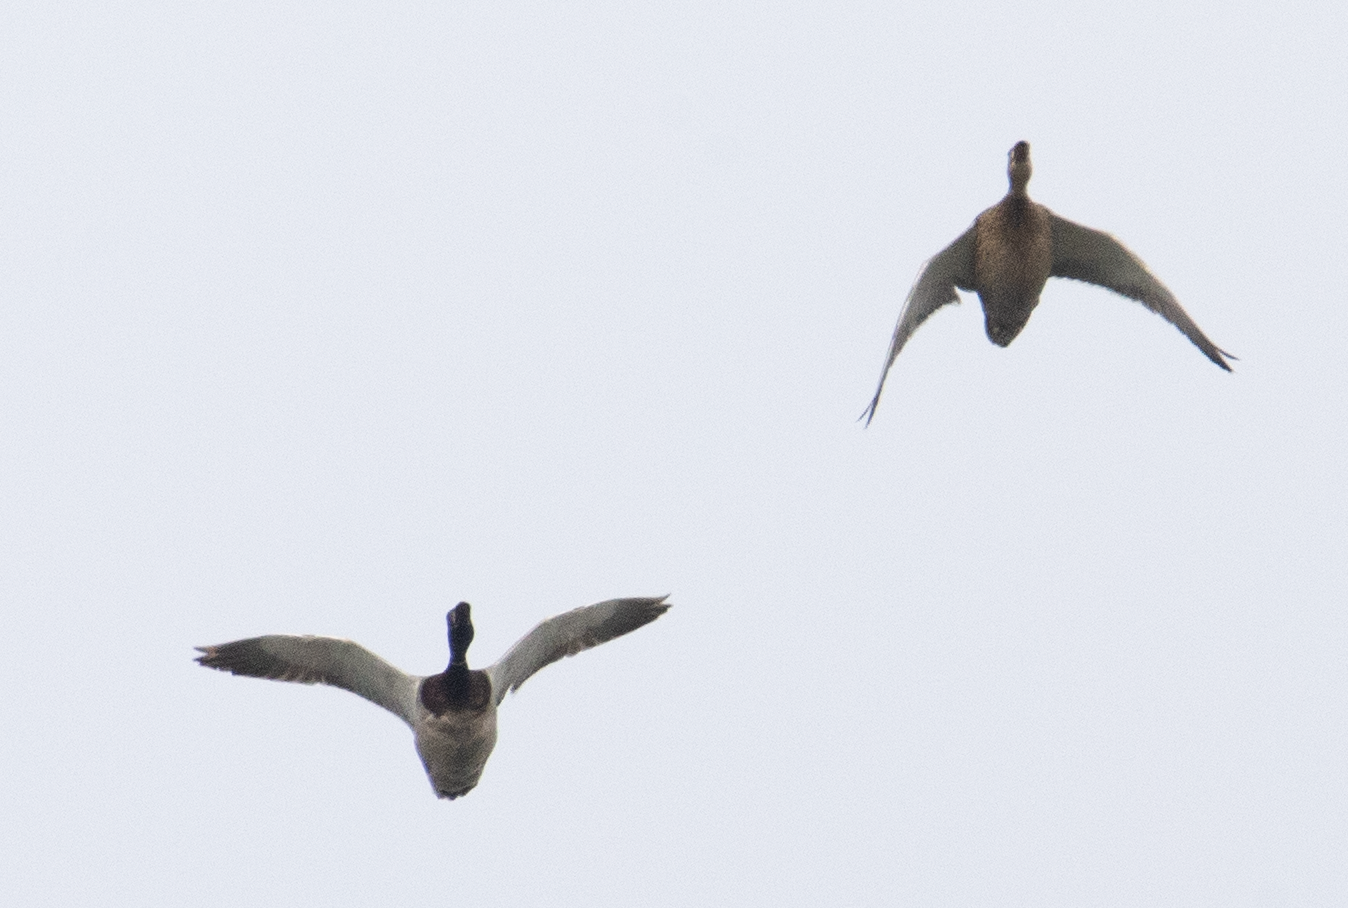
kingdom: Animalia
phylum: Chordata
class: Aves
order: Anseriformes
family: Anatidae
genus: Anas
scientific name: Anas platyrhynchos
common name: Mallard
